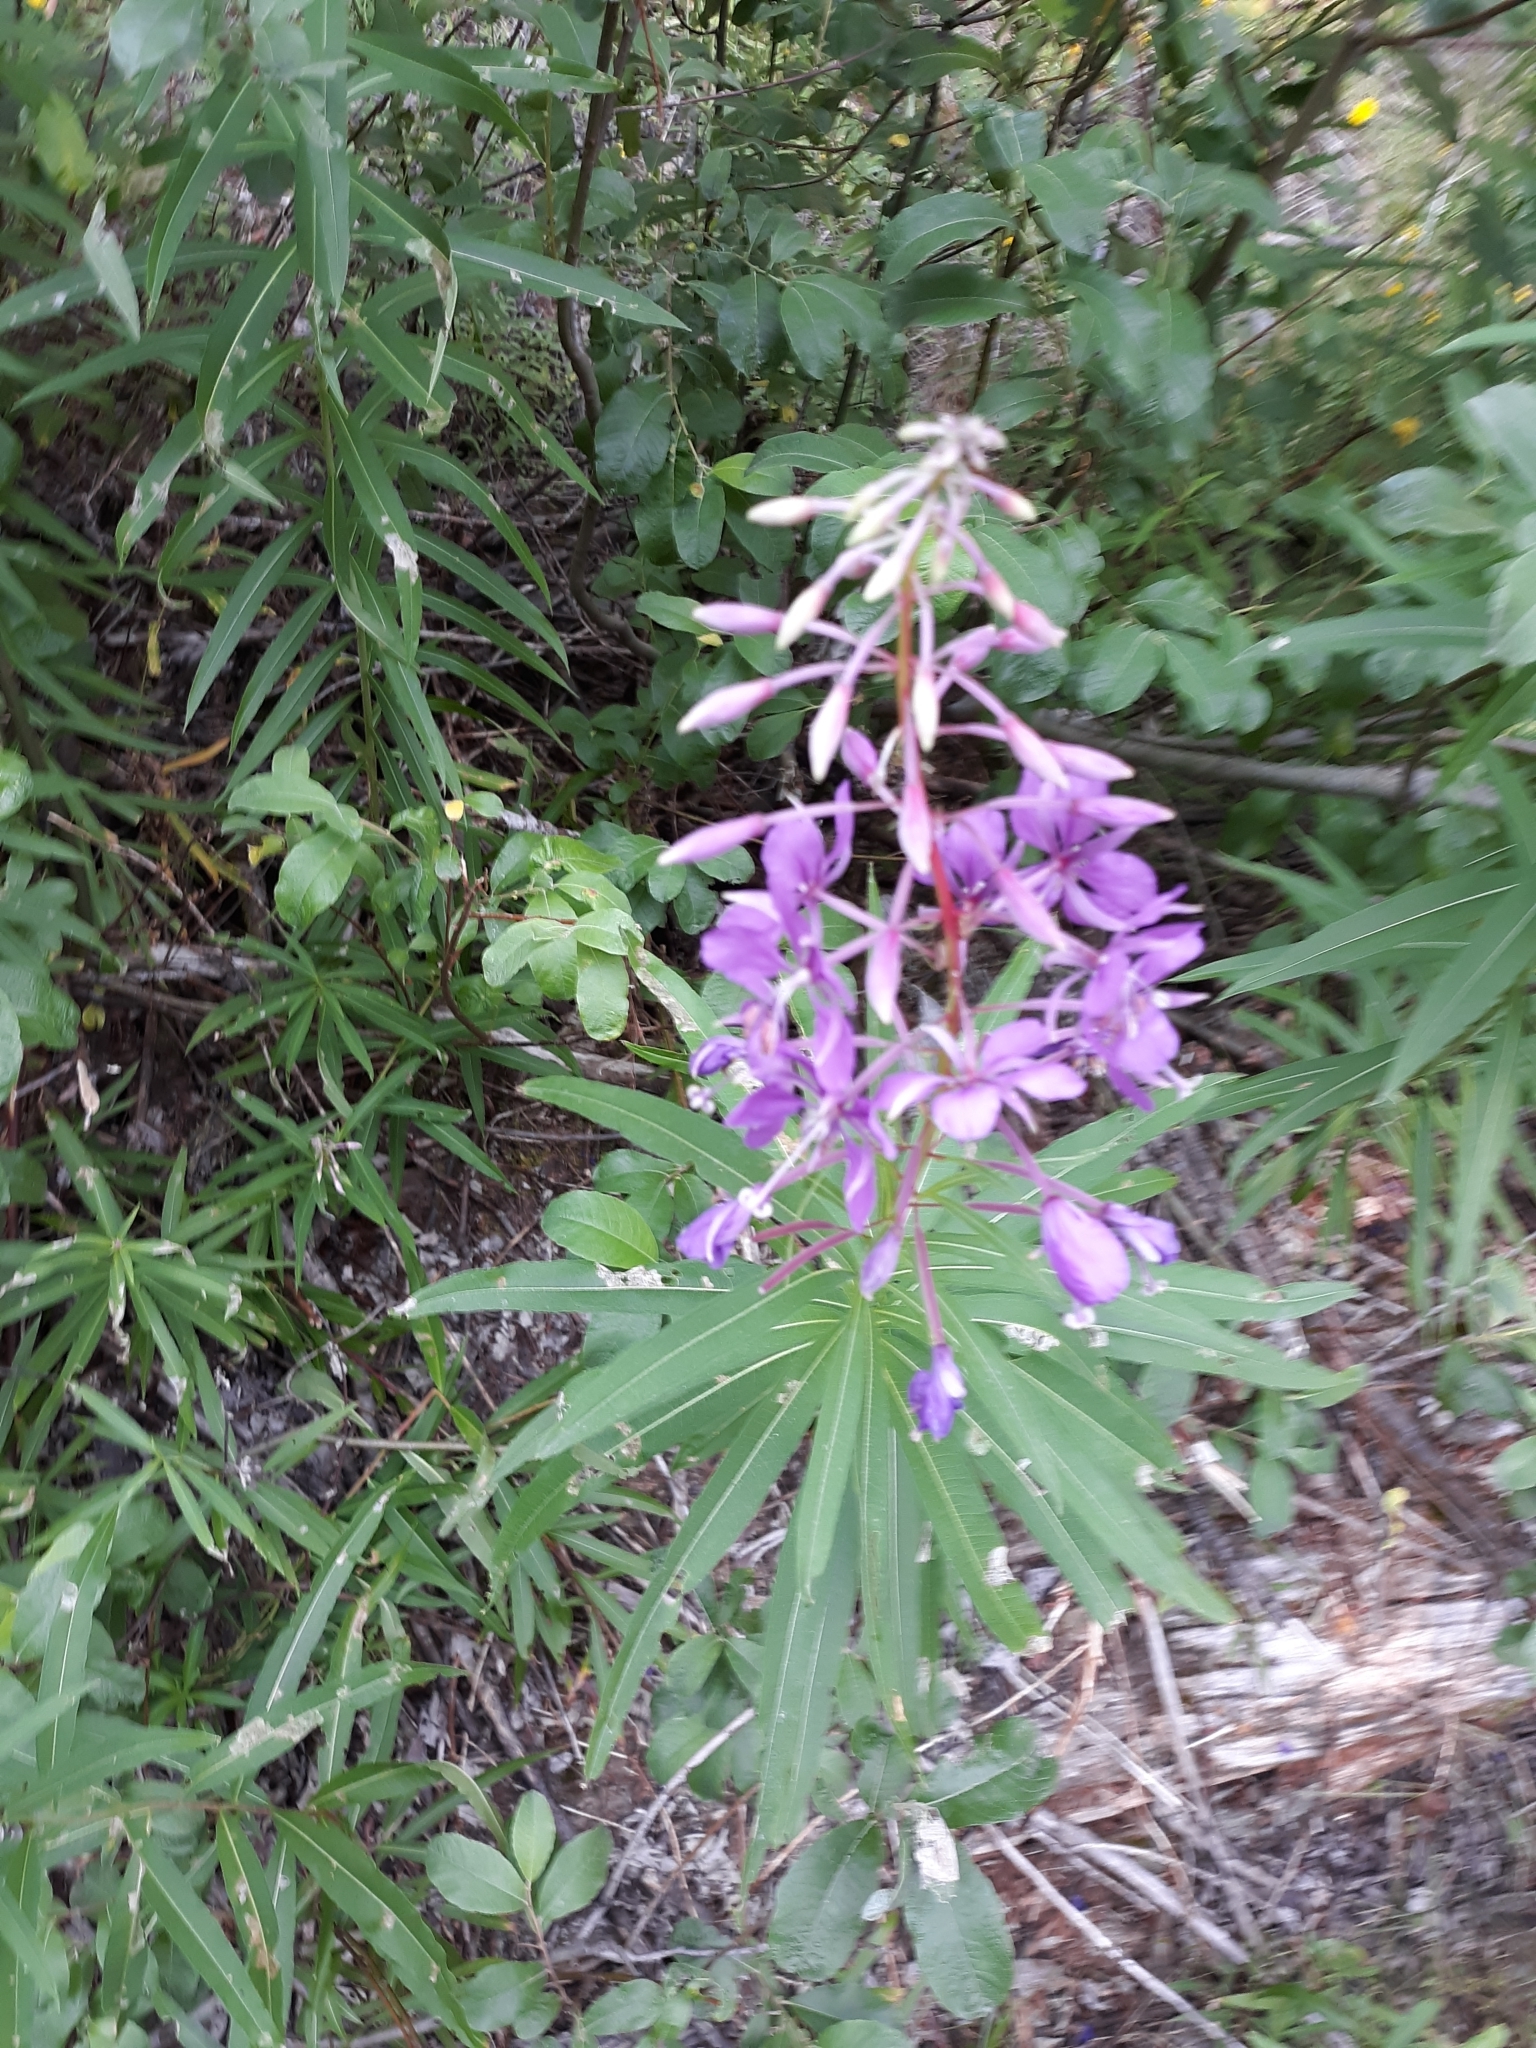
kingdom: Plantae
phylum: Tracheophyta
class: Magnoliopsida
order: Myrtales
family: Onagraceae
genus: Chamaenerion
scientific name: Chamaenerion angustifolium
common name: Fireweed
